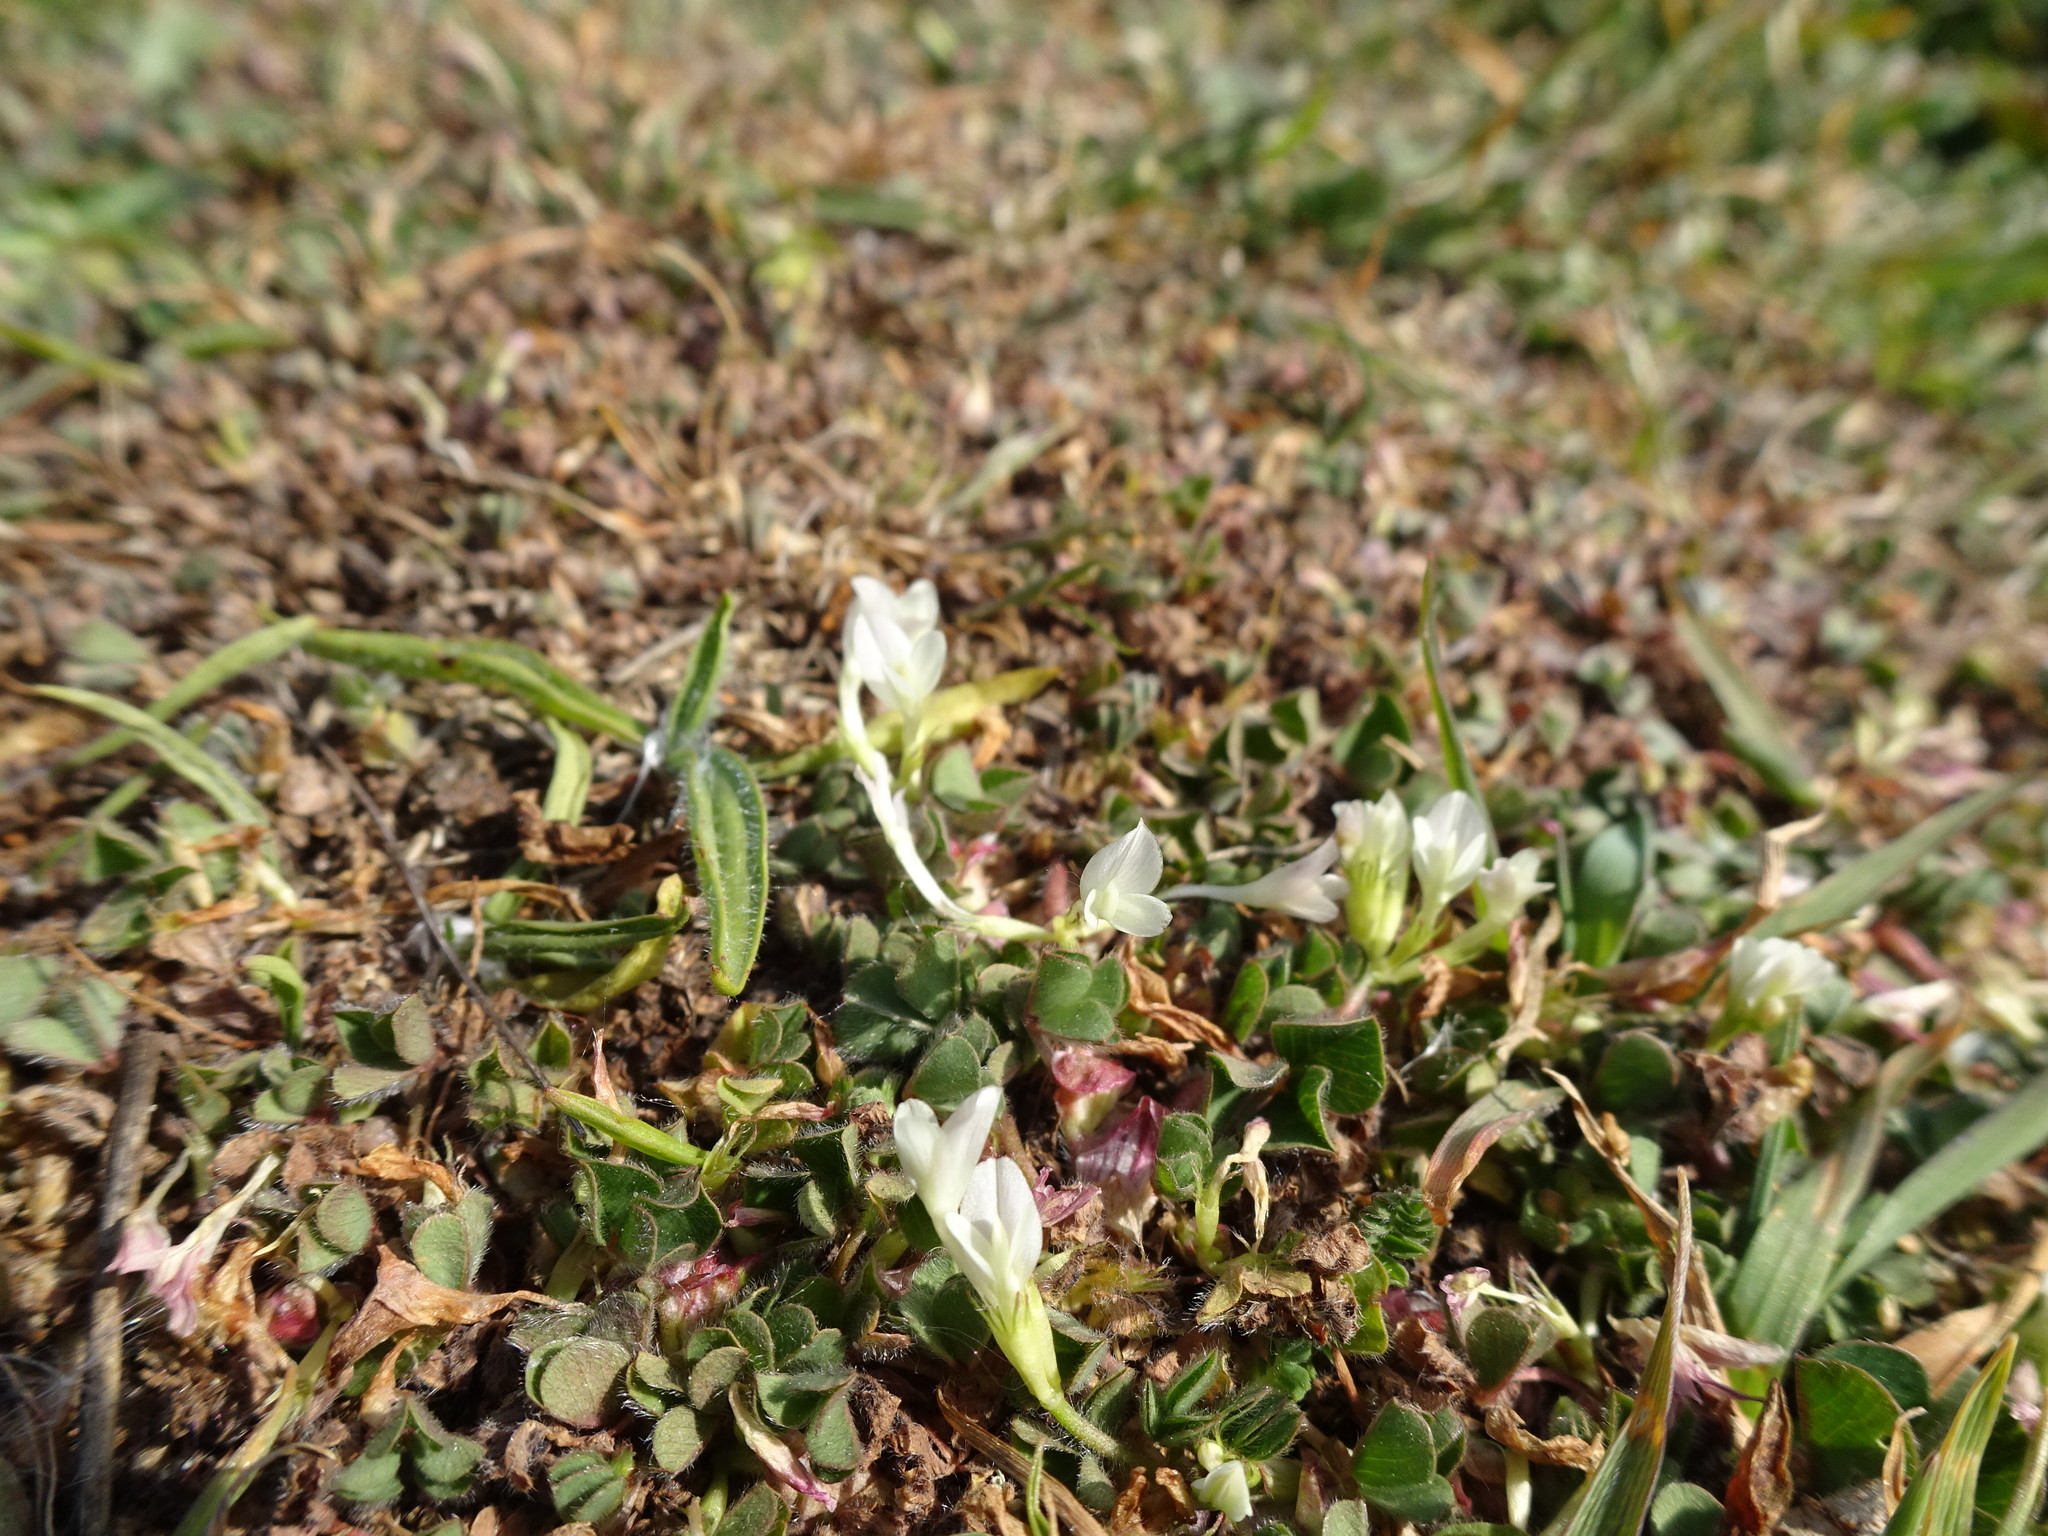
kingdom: Plantae
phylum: Tracheophyta
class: Magnoliopsida
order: Fabales
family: Fabaceae
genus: Trifolium
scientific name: Trifolium subterraneum
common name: Subterranean clover
